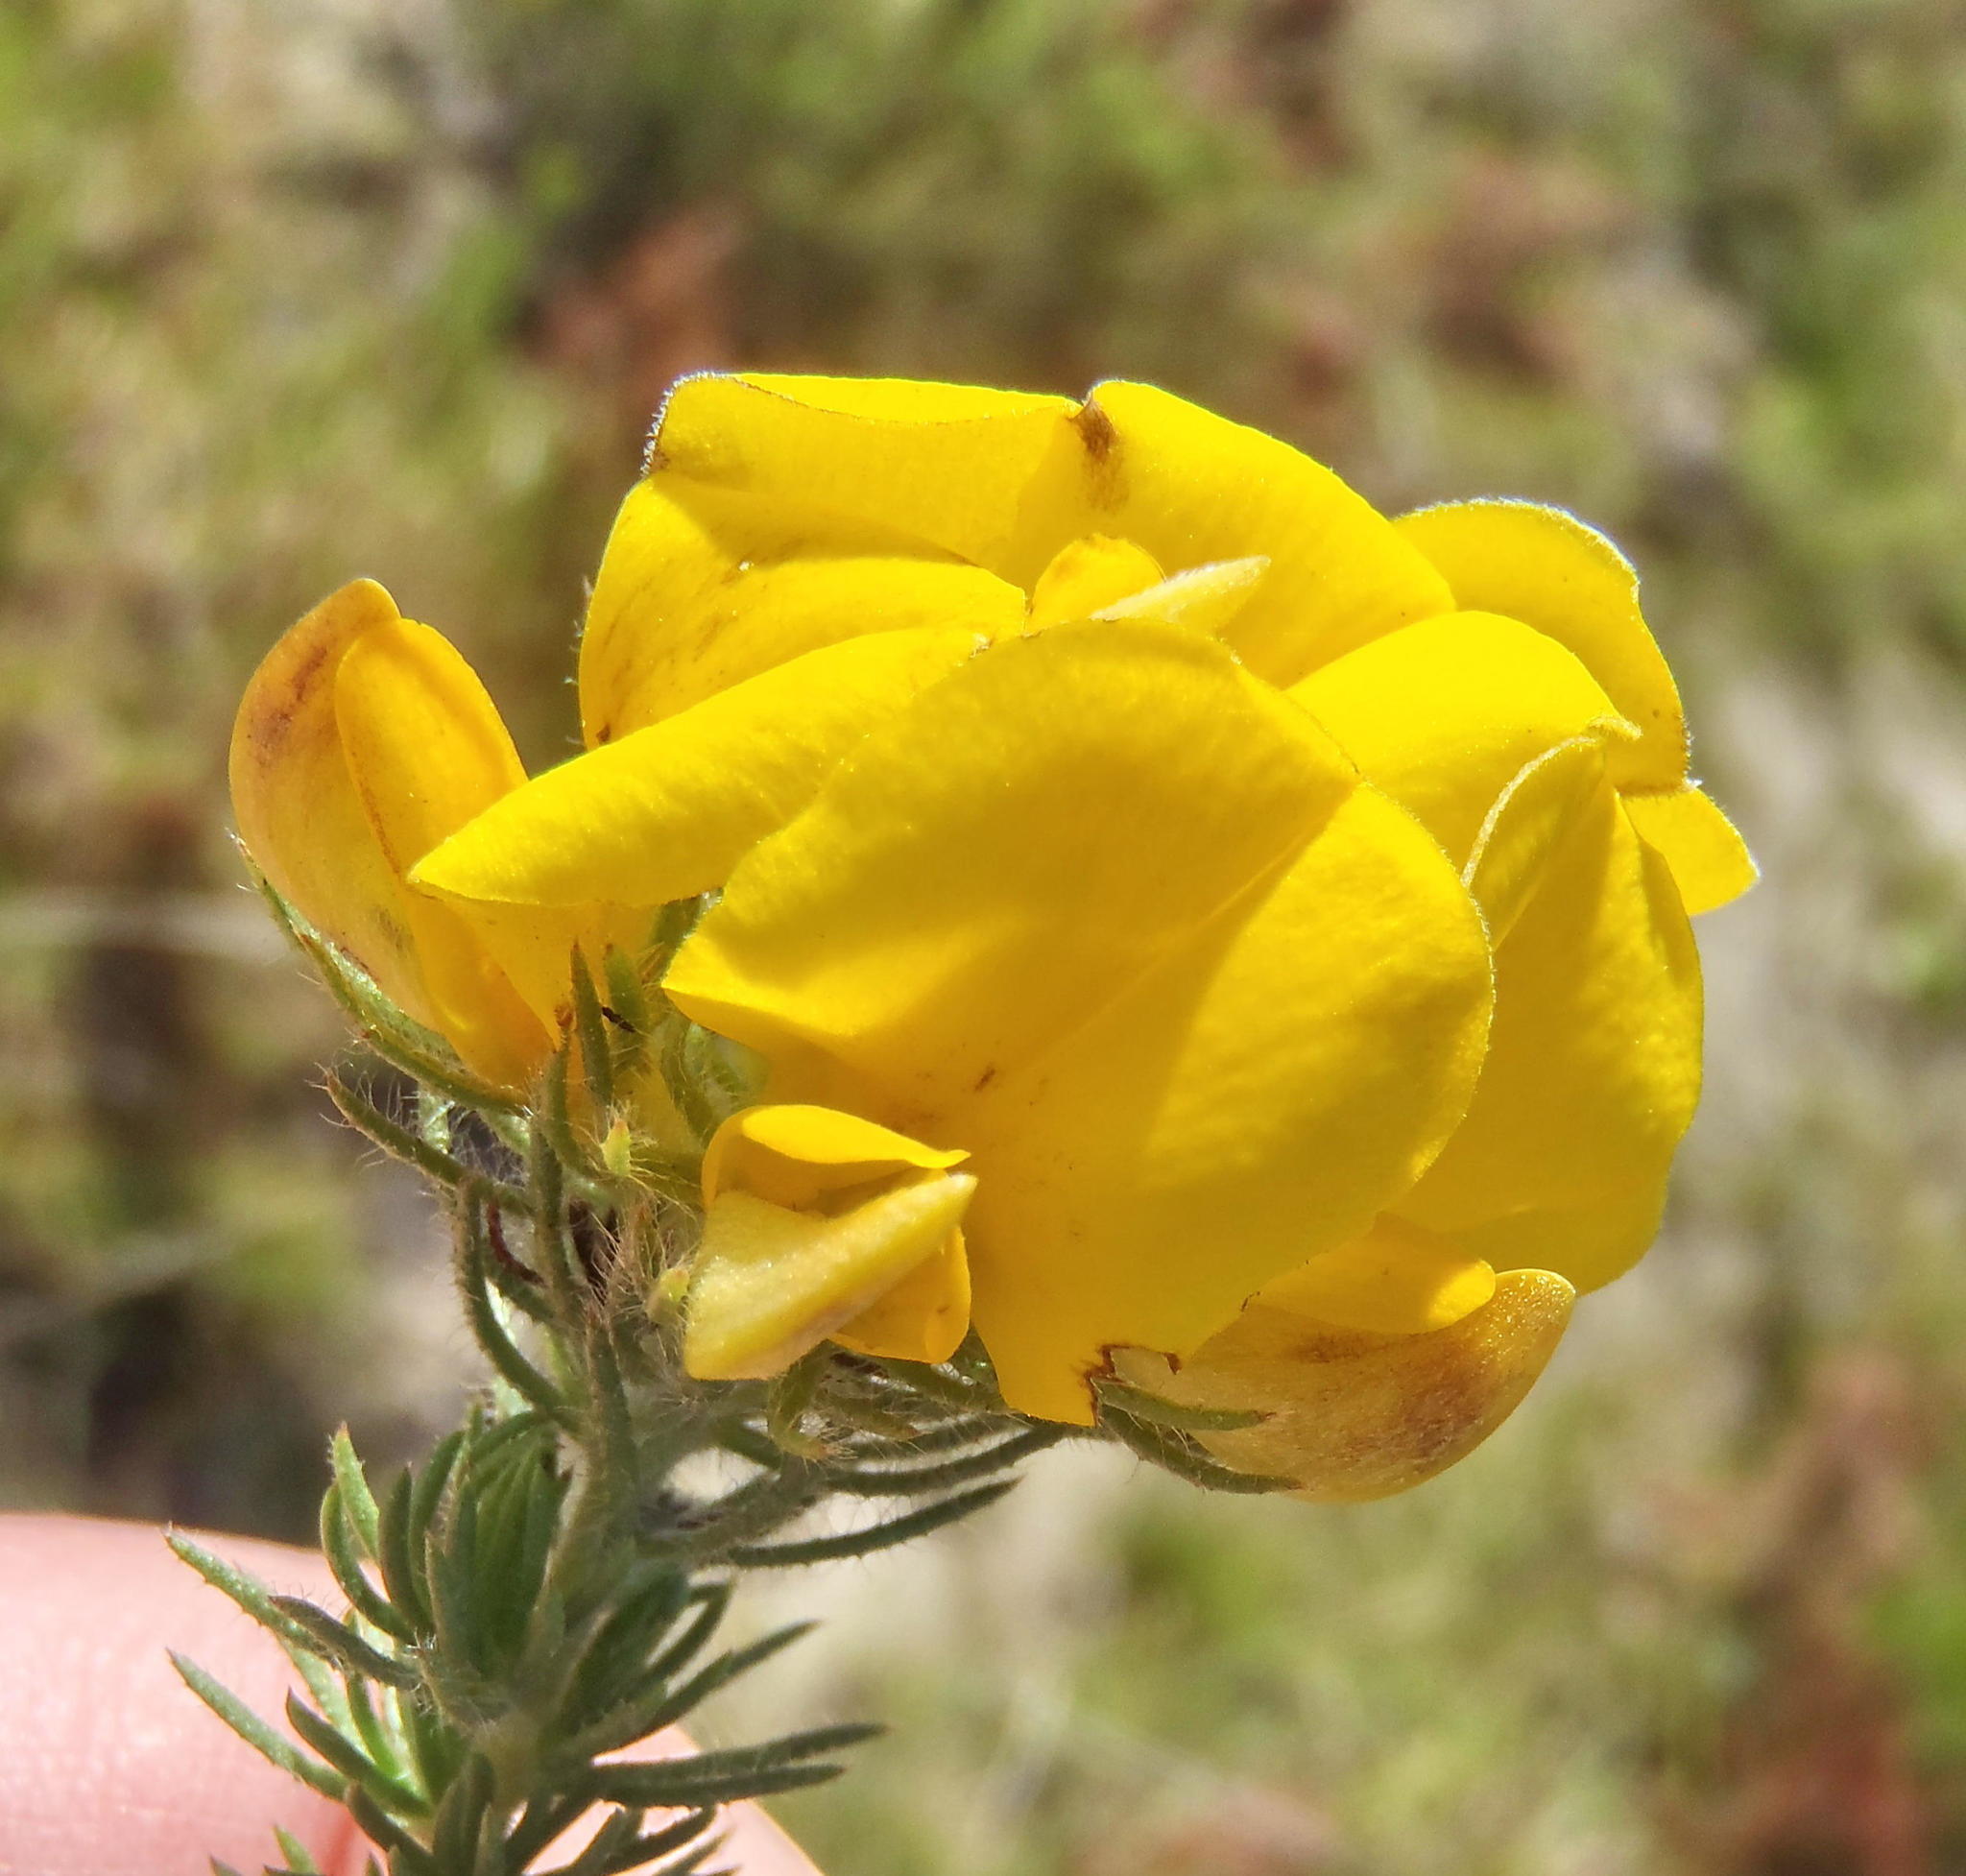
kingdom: Plantae
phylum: Tracheophyta
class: Magnoliopsida
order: Fabales
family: Fabaceae
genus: Aspalathus
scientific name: Aspalathus ciliaris
